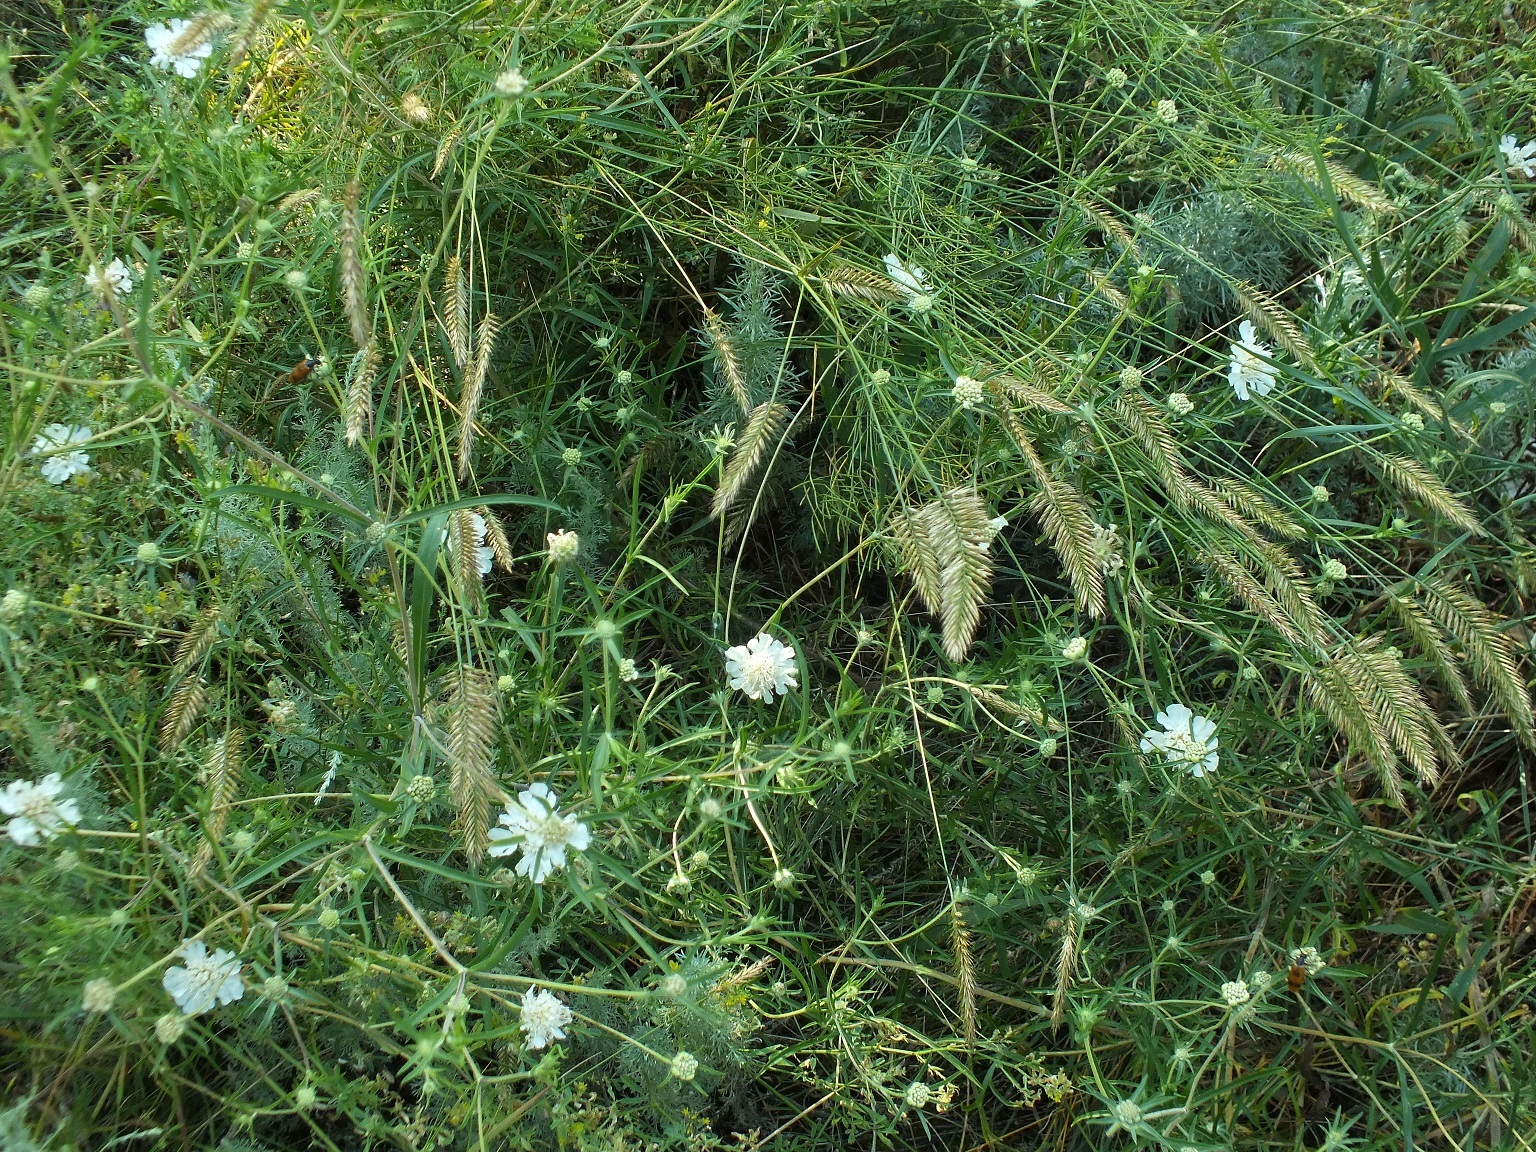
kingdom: Plantae
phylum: Tracheophyta
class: Magnoliopsida
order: Dipsacales
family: Caprifoliaceae
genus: Lomelosia
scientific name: Lomelosia argentea
